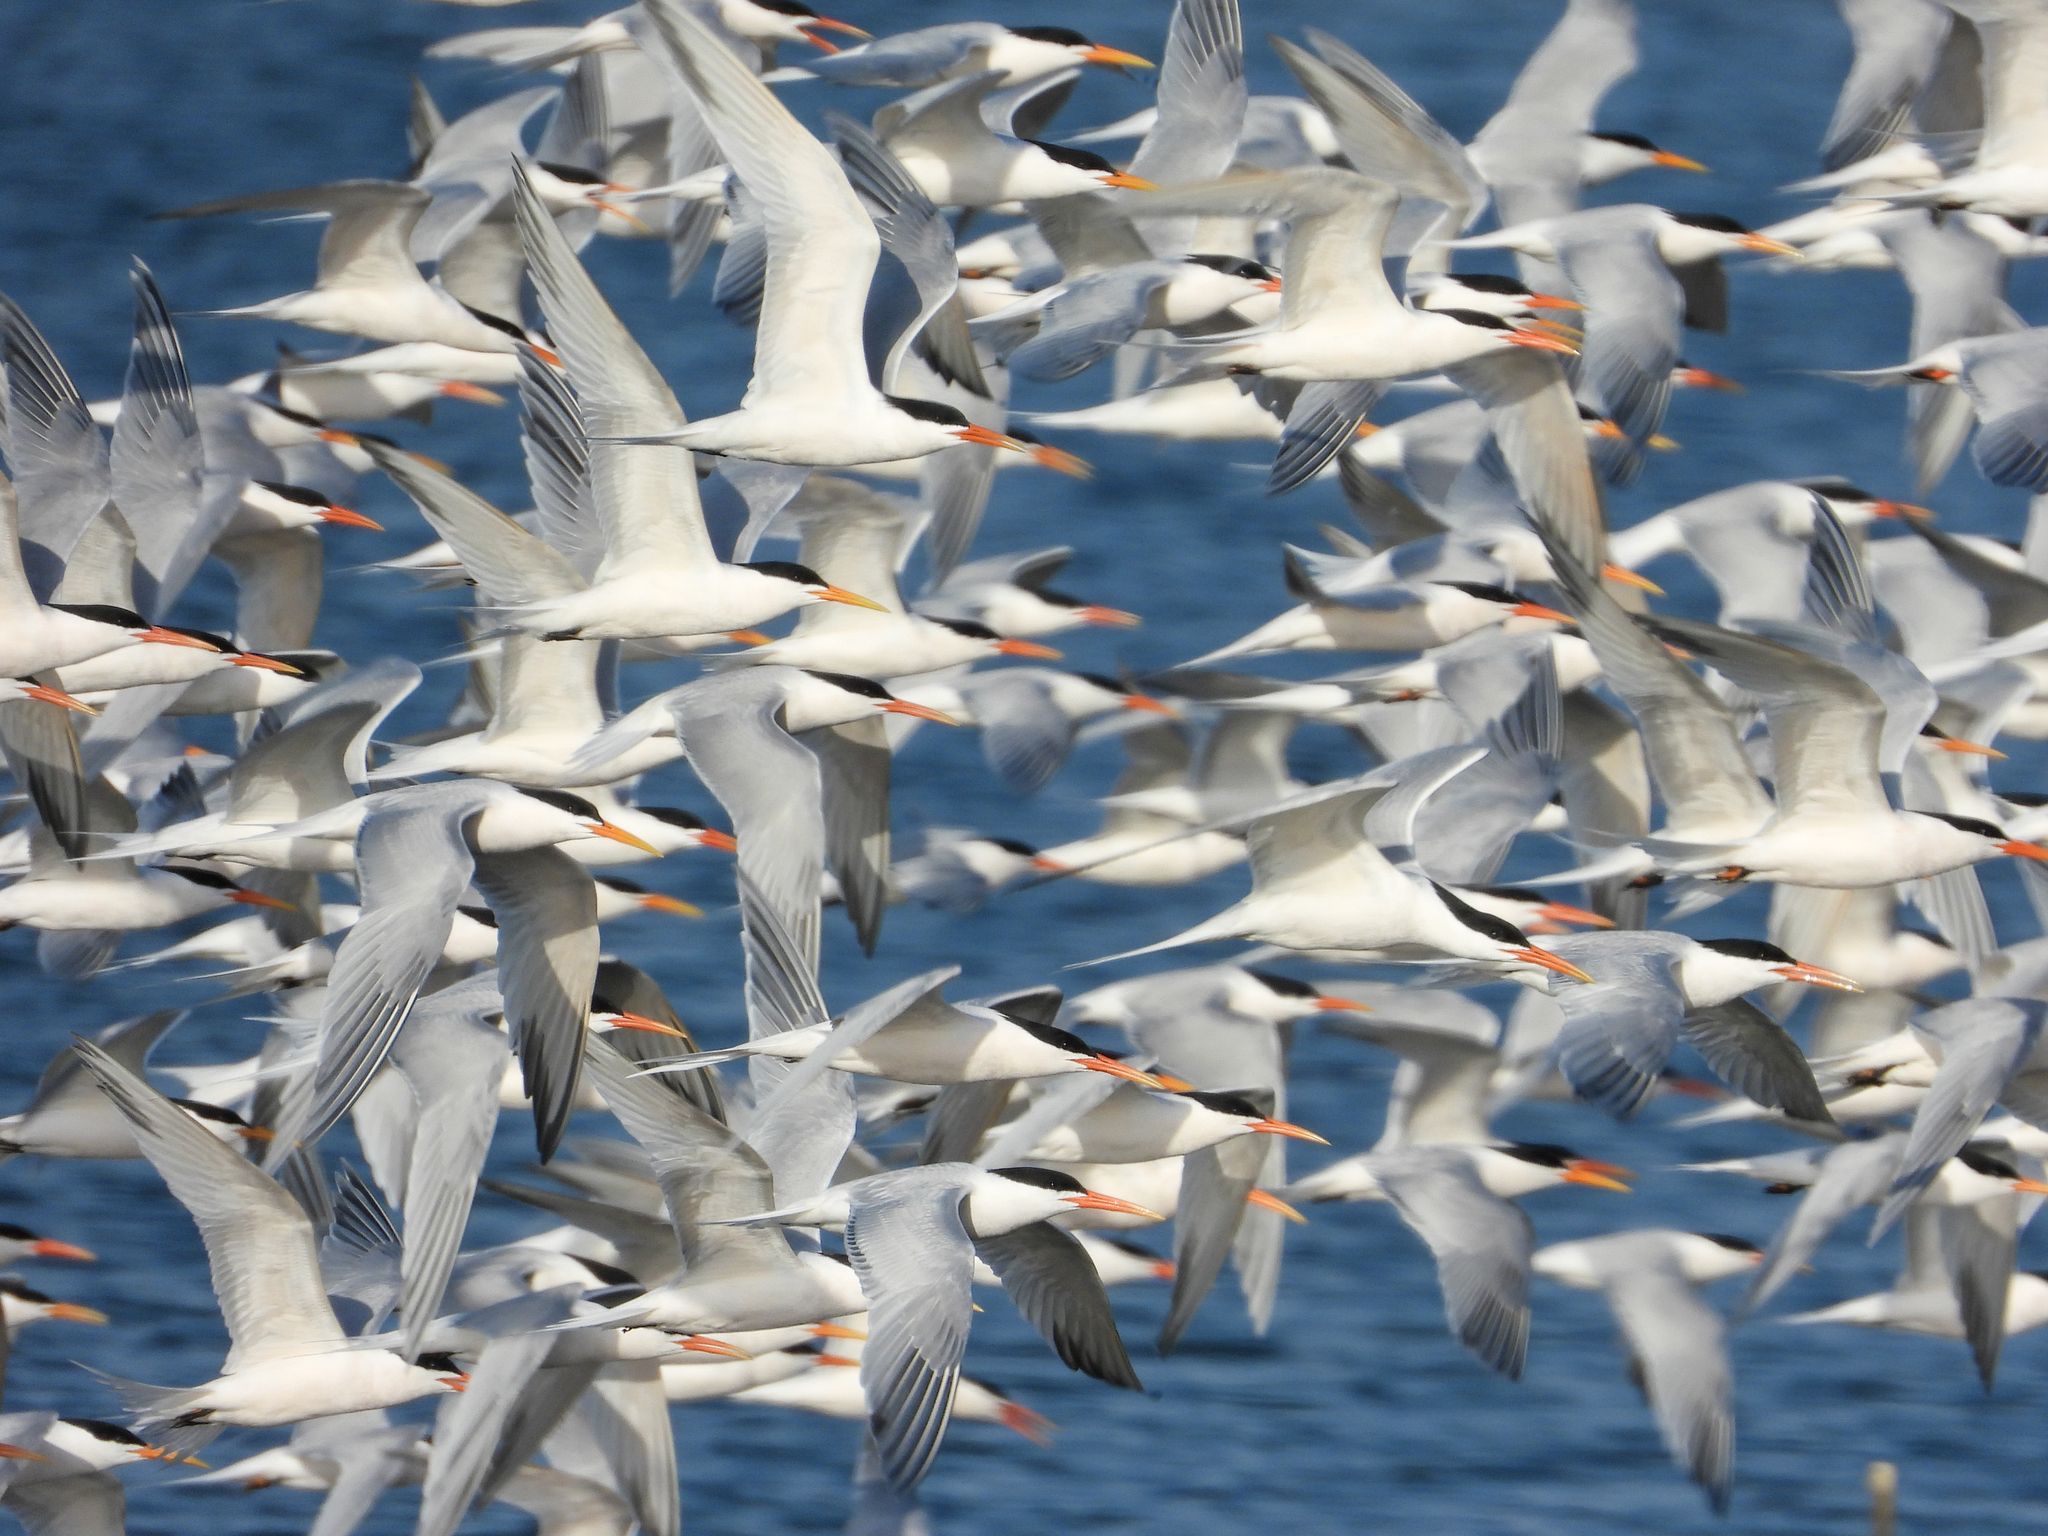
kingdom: Animalia
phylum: Chordata
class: Aves
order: Charadriiformes
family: Laridae
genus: Thalasseus
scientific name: Thalasseus elegans
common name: Elegant tern
